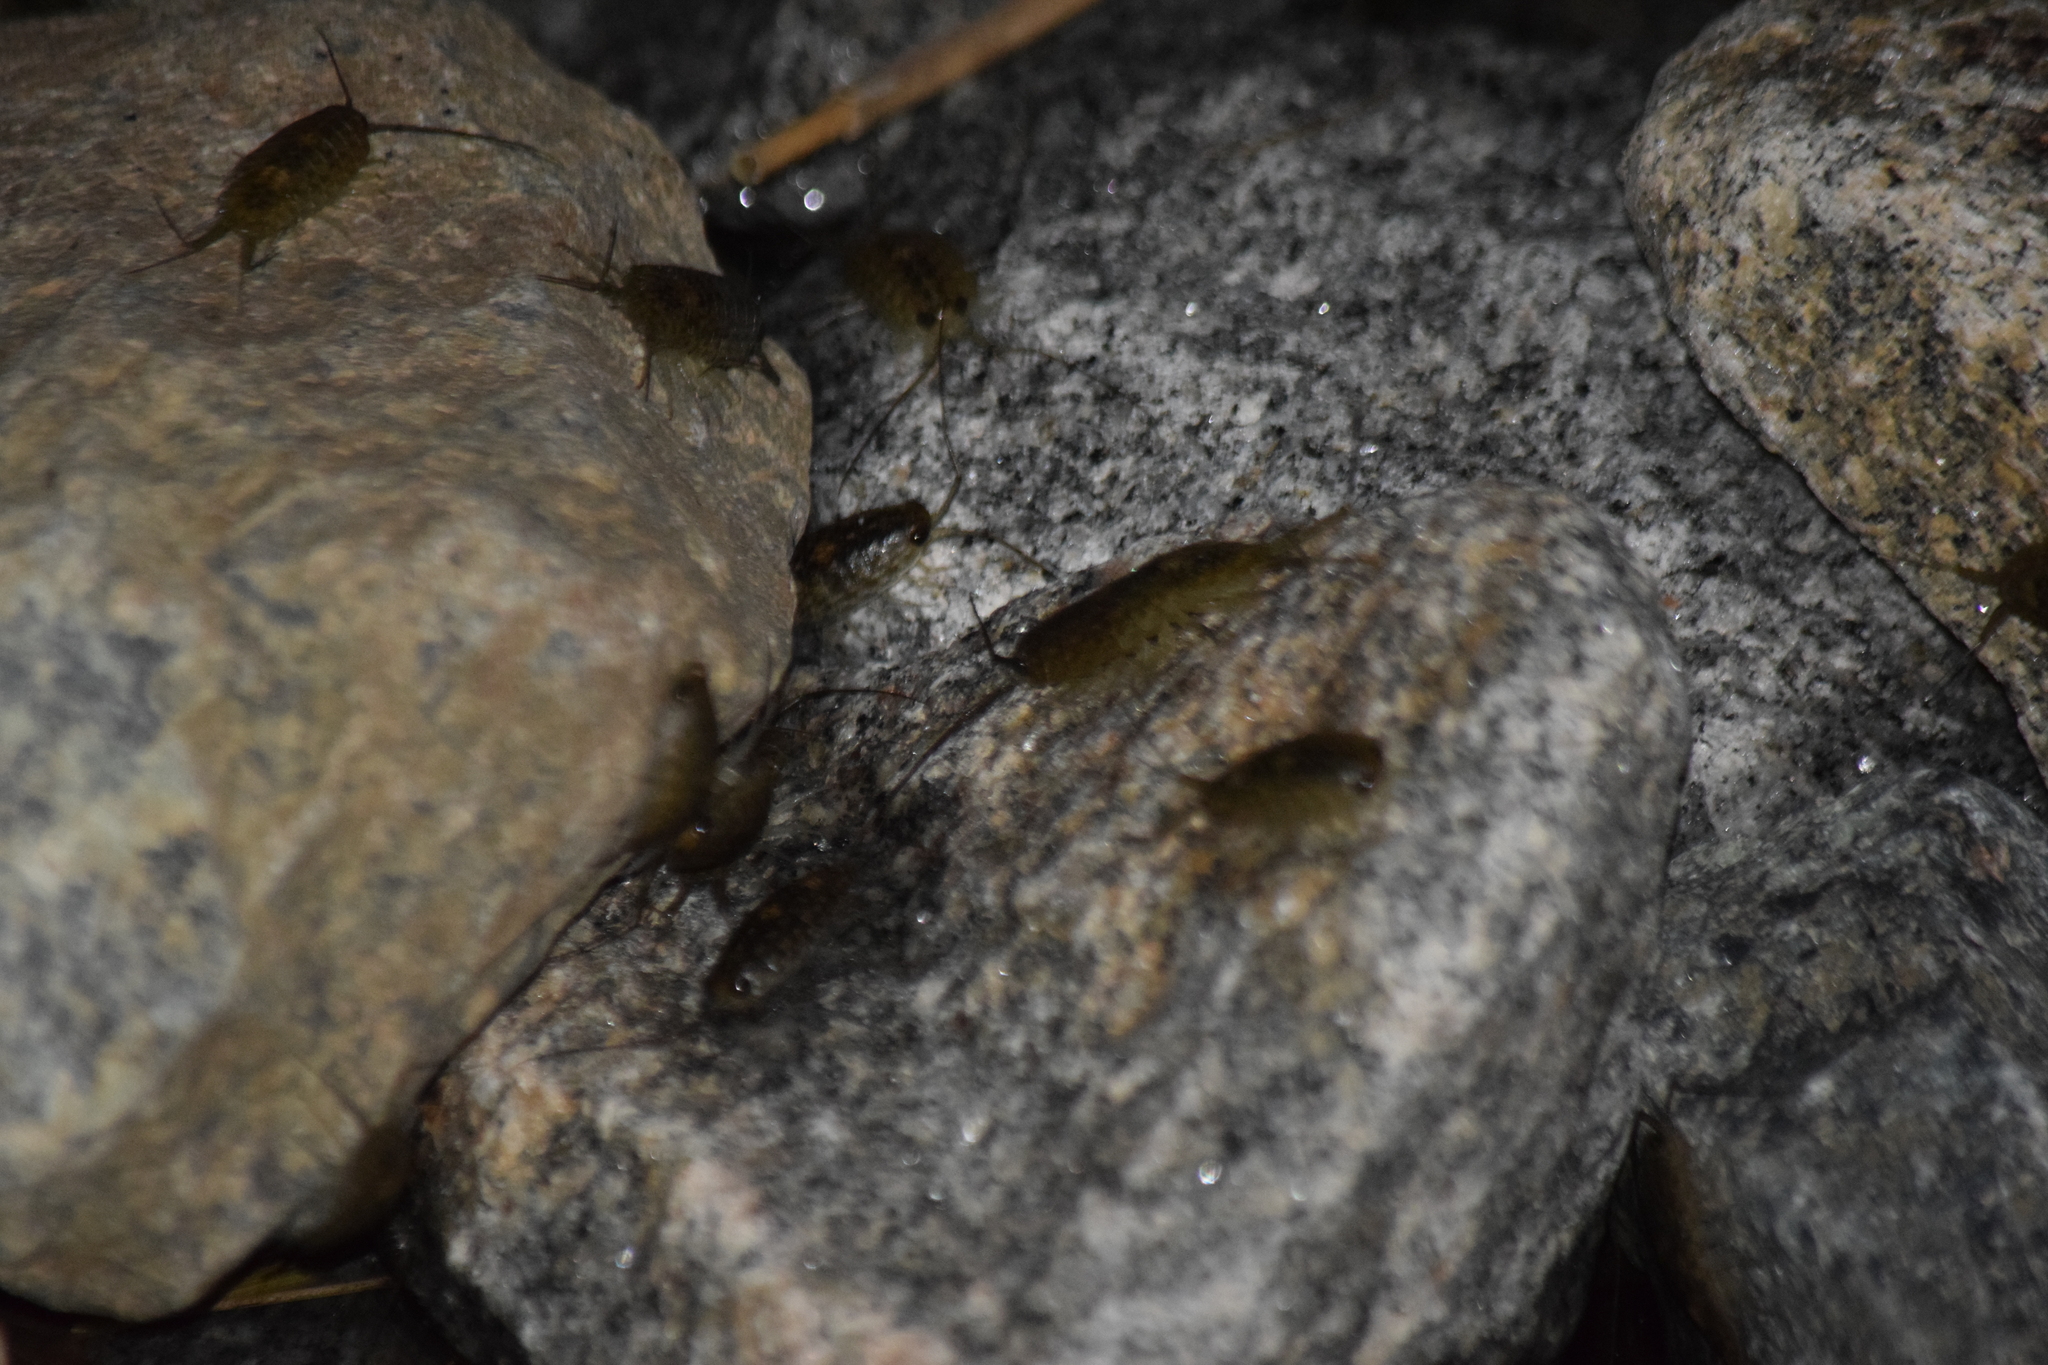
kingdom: Animalia
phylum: Arthropoda
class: Malacostraca
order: Isopoda
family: Ligiidae
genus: Ligia
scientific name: Ligia exotica
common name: Wharf roach
